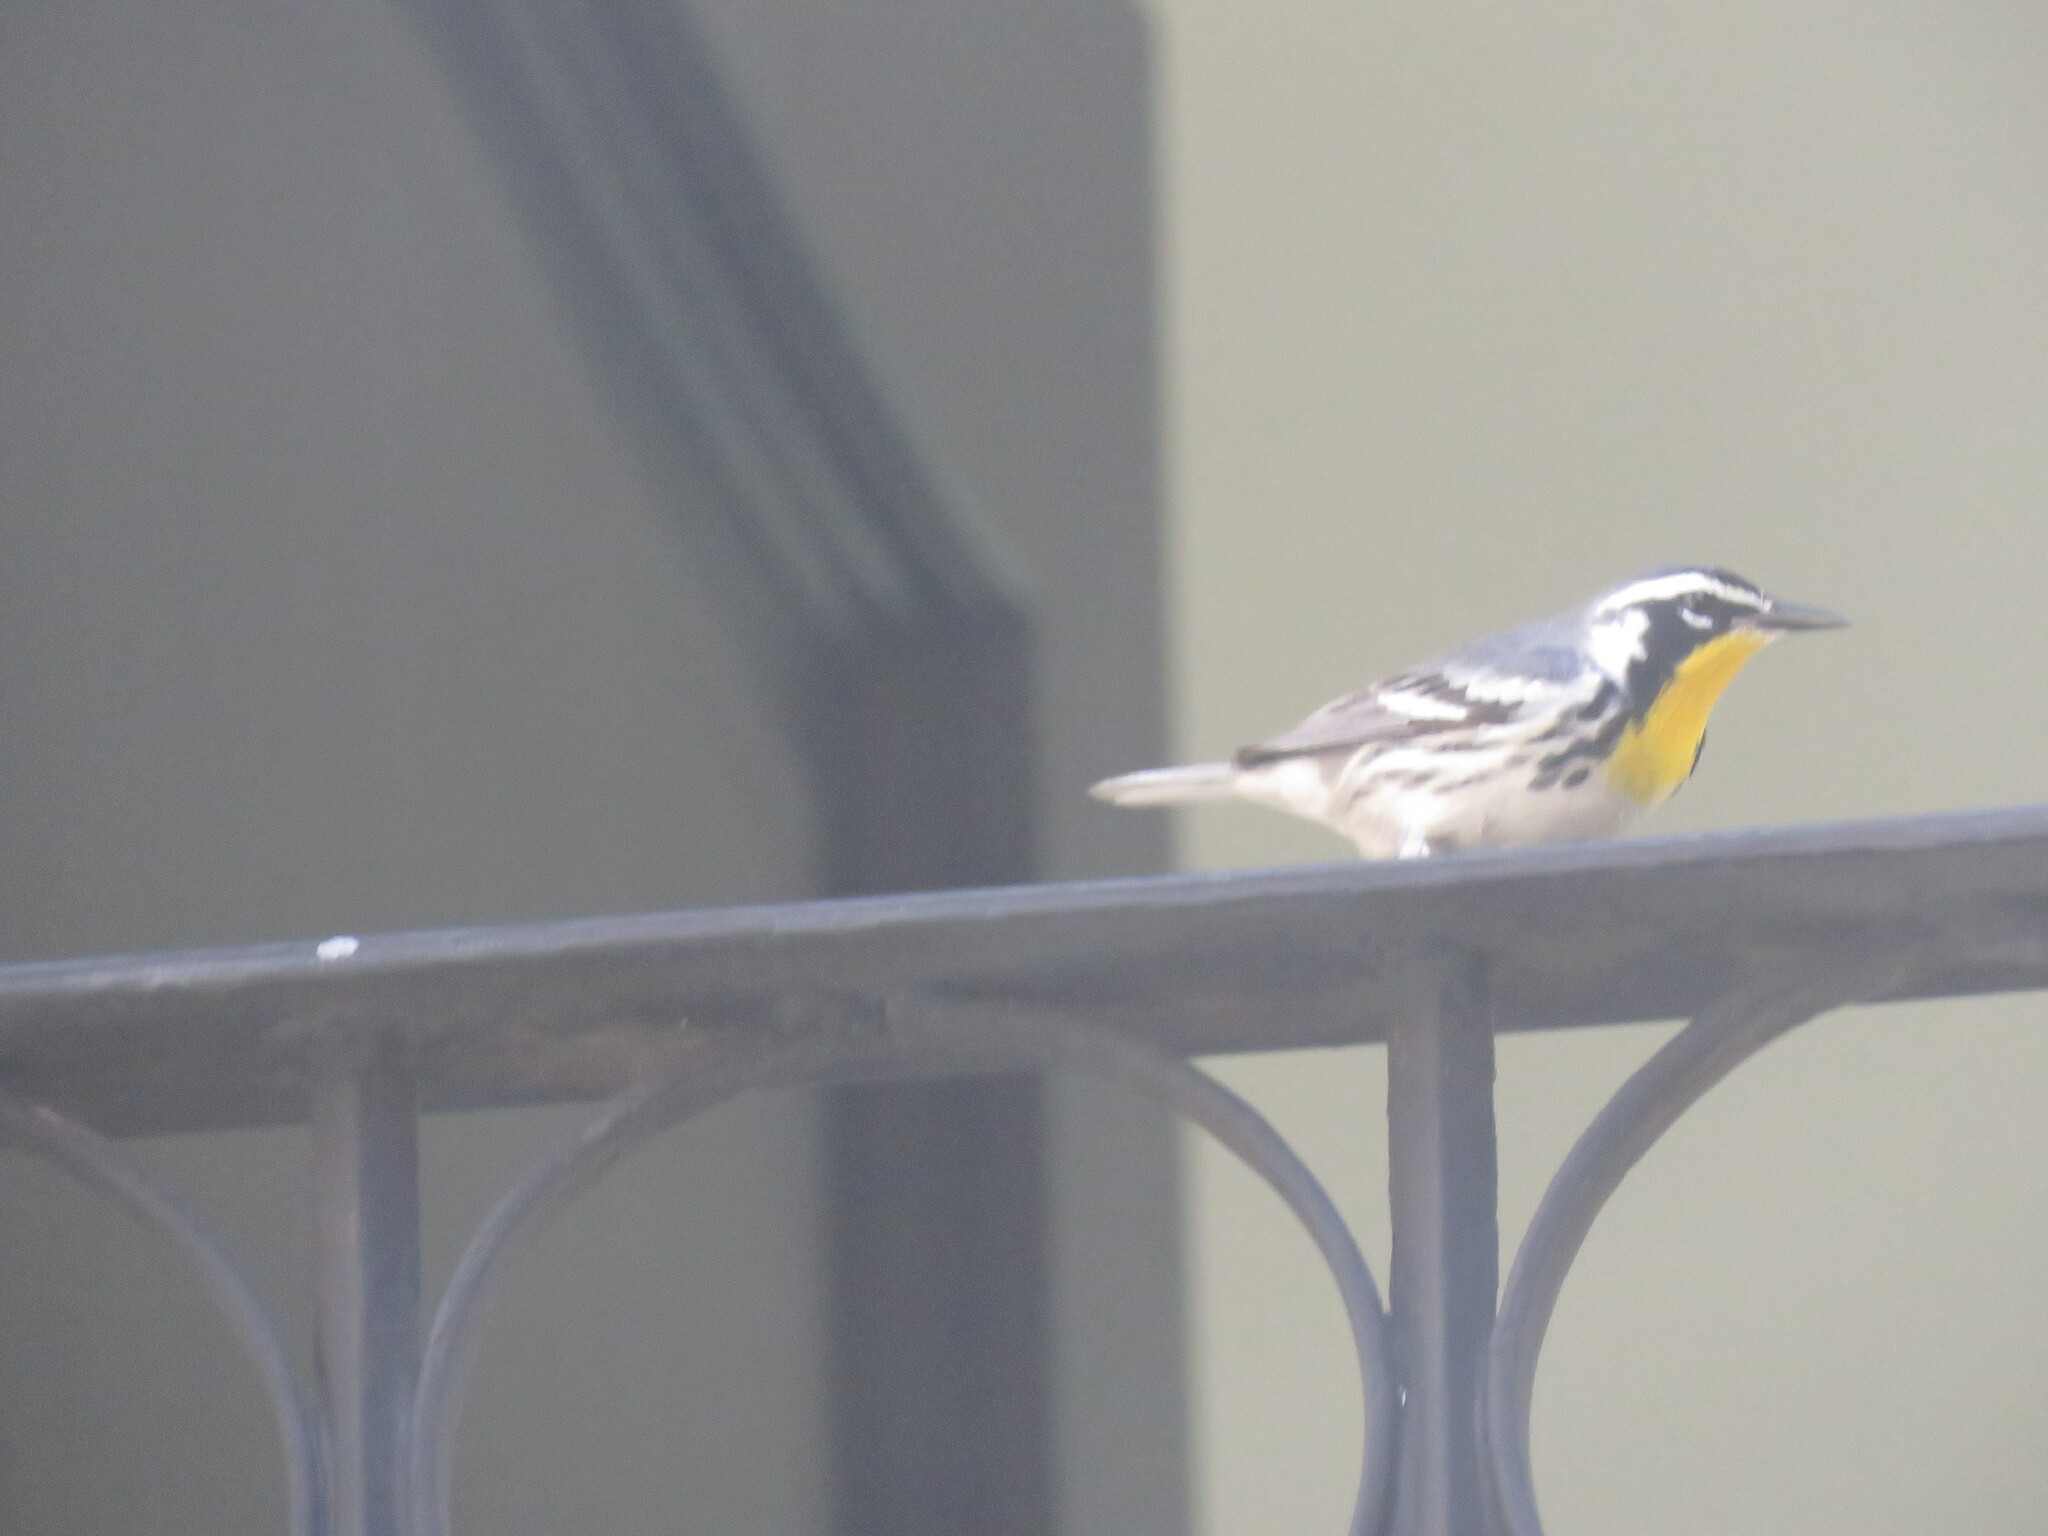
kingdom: Animalia
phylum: Chordata
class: Aves
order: Passeriformes
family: Parulidae
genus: Setophaga
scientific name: Setophaga dominica
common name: Yellow-throated warbler
